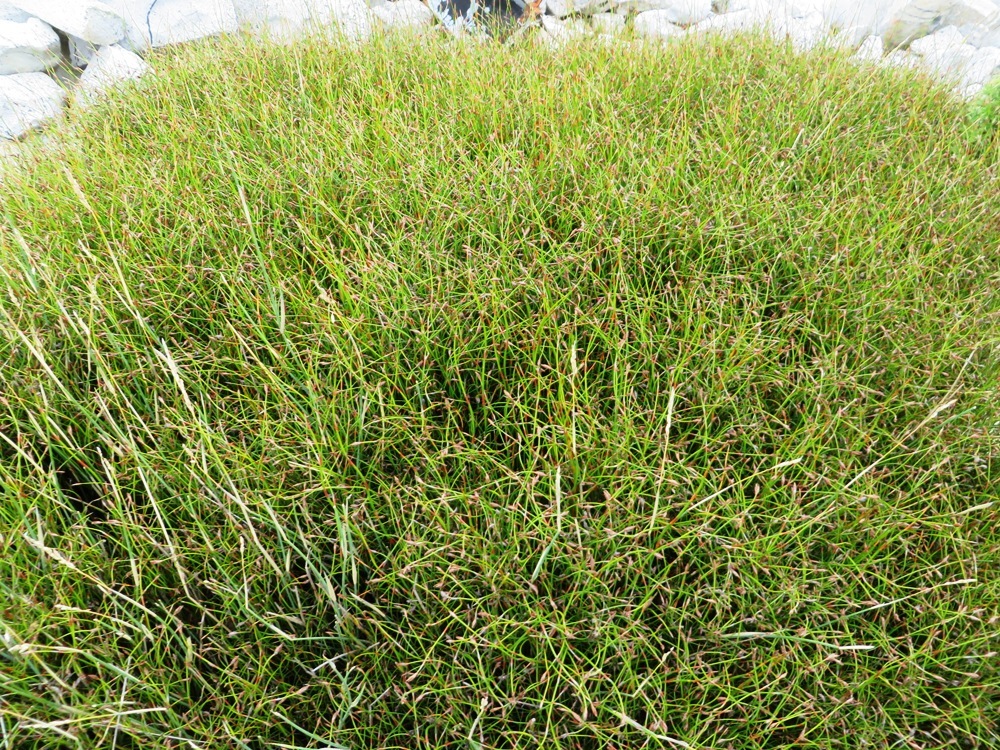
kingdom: Plantae
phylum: Tracheophyta
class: Liliopsida
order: Poales
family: Restionaceae
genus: Restio
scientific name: Restio laniger
